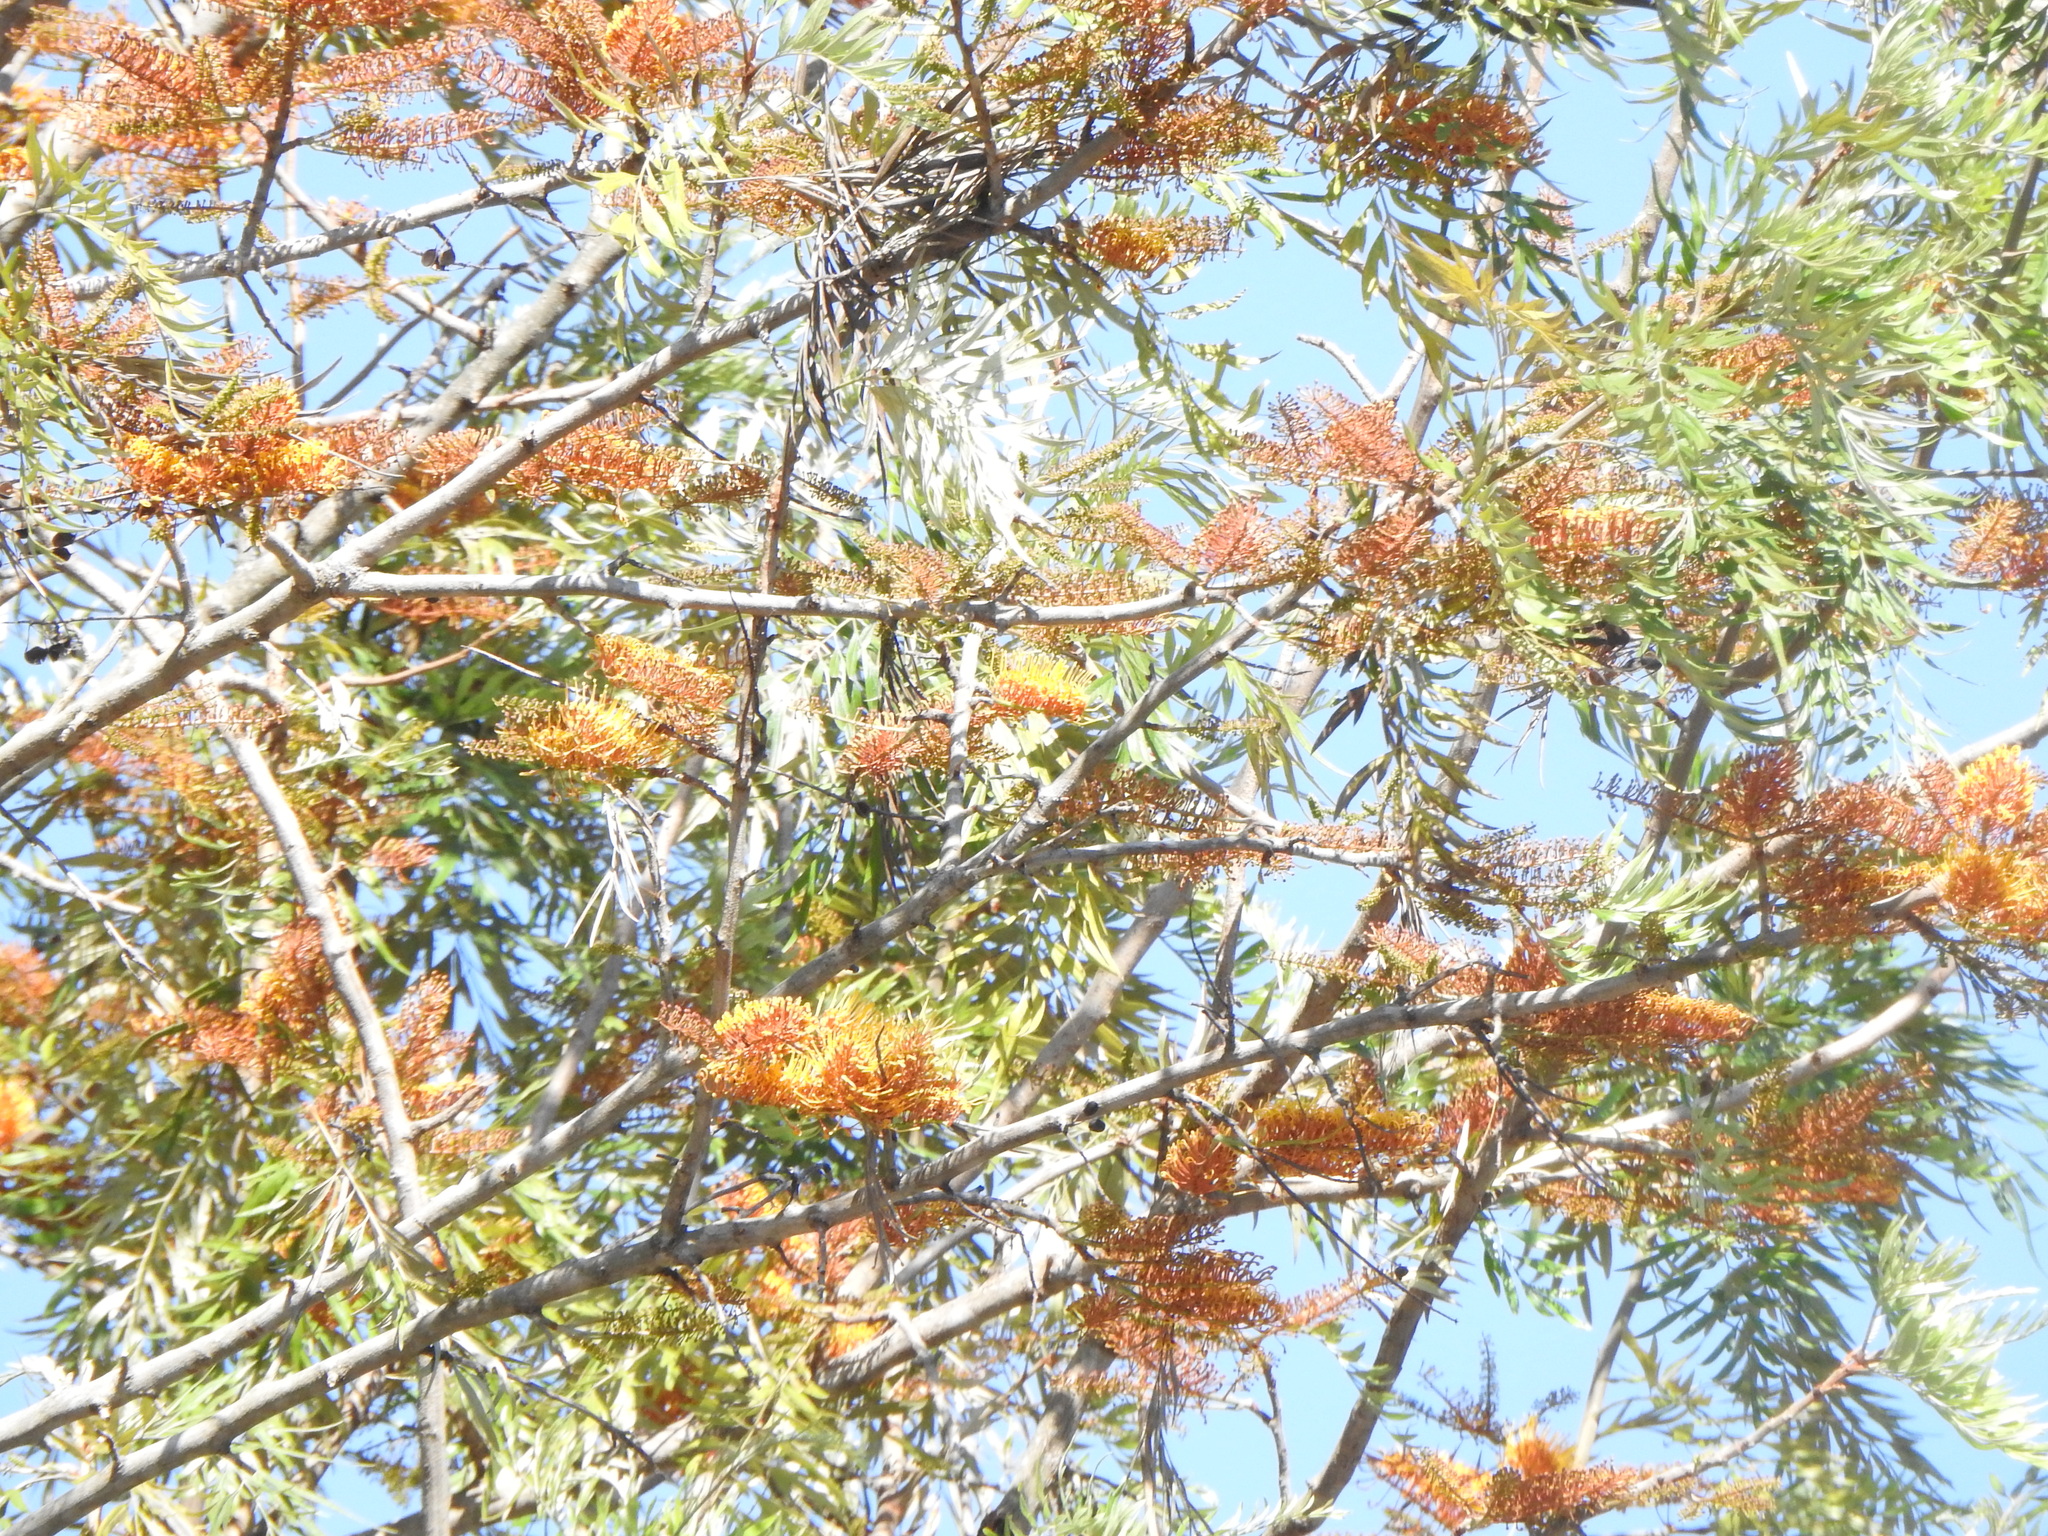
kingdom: Plantae
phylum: Tracheophyta
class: Magnoliopsida
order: Proteales
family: Proteaceae
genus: Grevillea
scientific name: Grevillea robusta
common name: Silkoak
